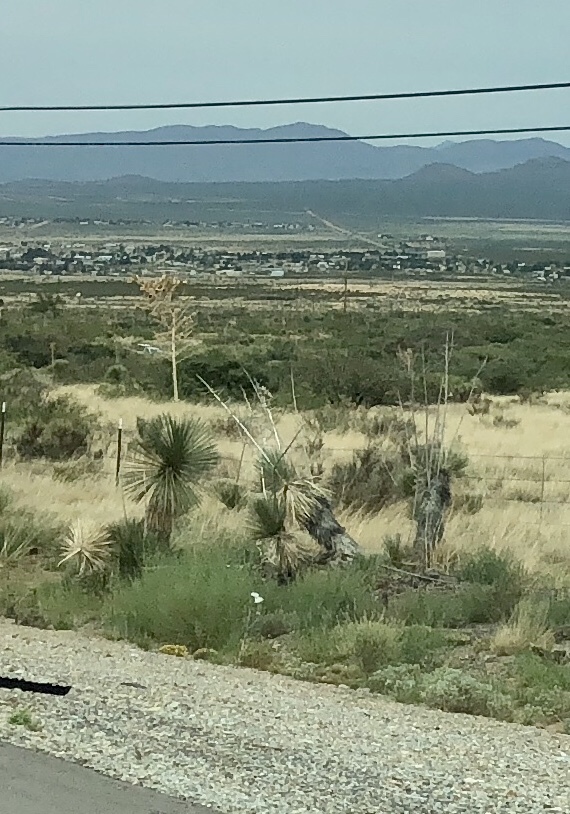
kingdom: Plantae
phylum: Tracheophyta
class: Liliopsida
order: Asparagales
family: Asparagaceae
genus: Yucca
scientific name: Yucca elata
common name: Palmella
